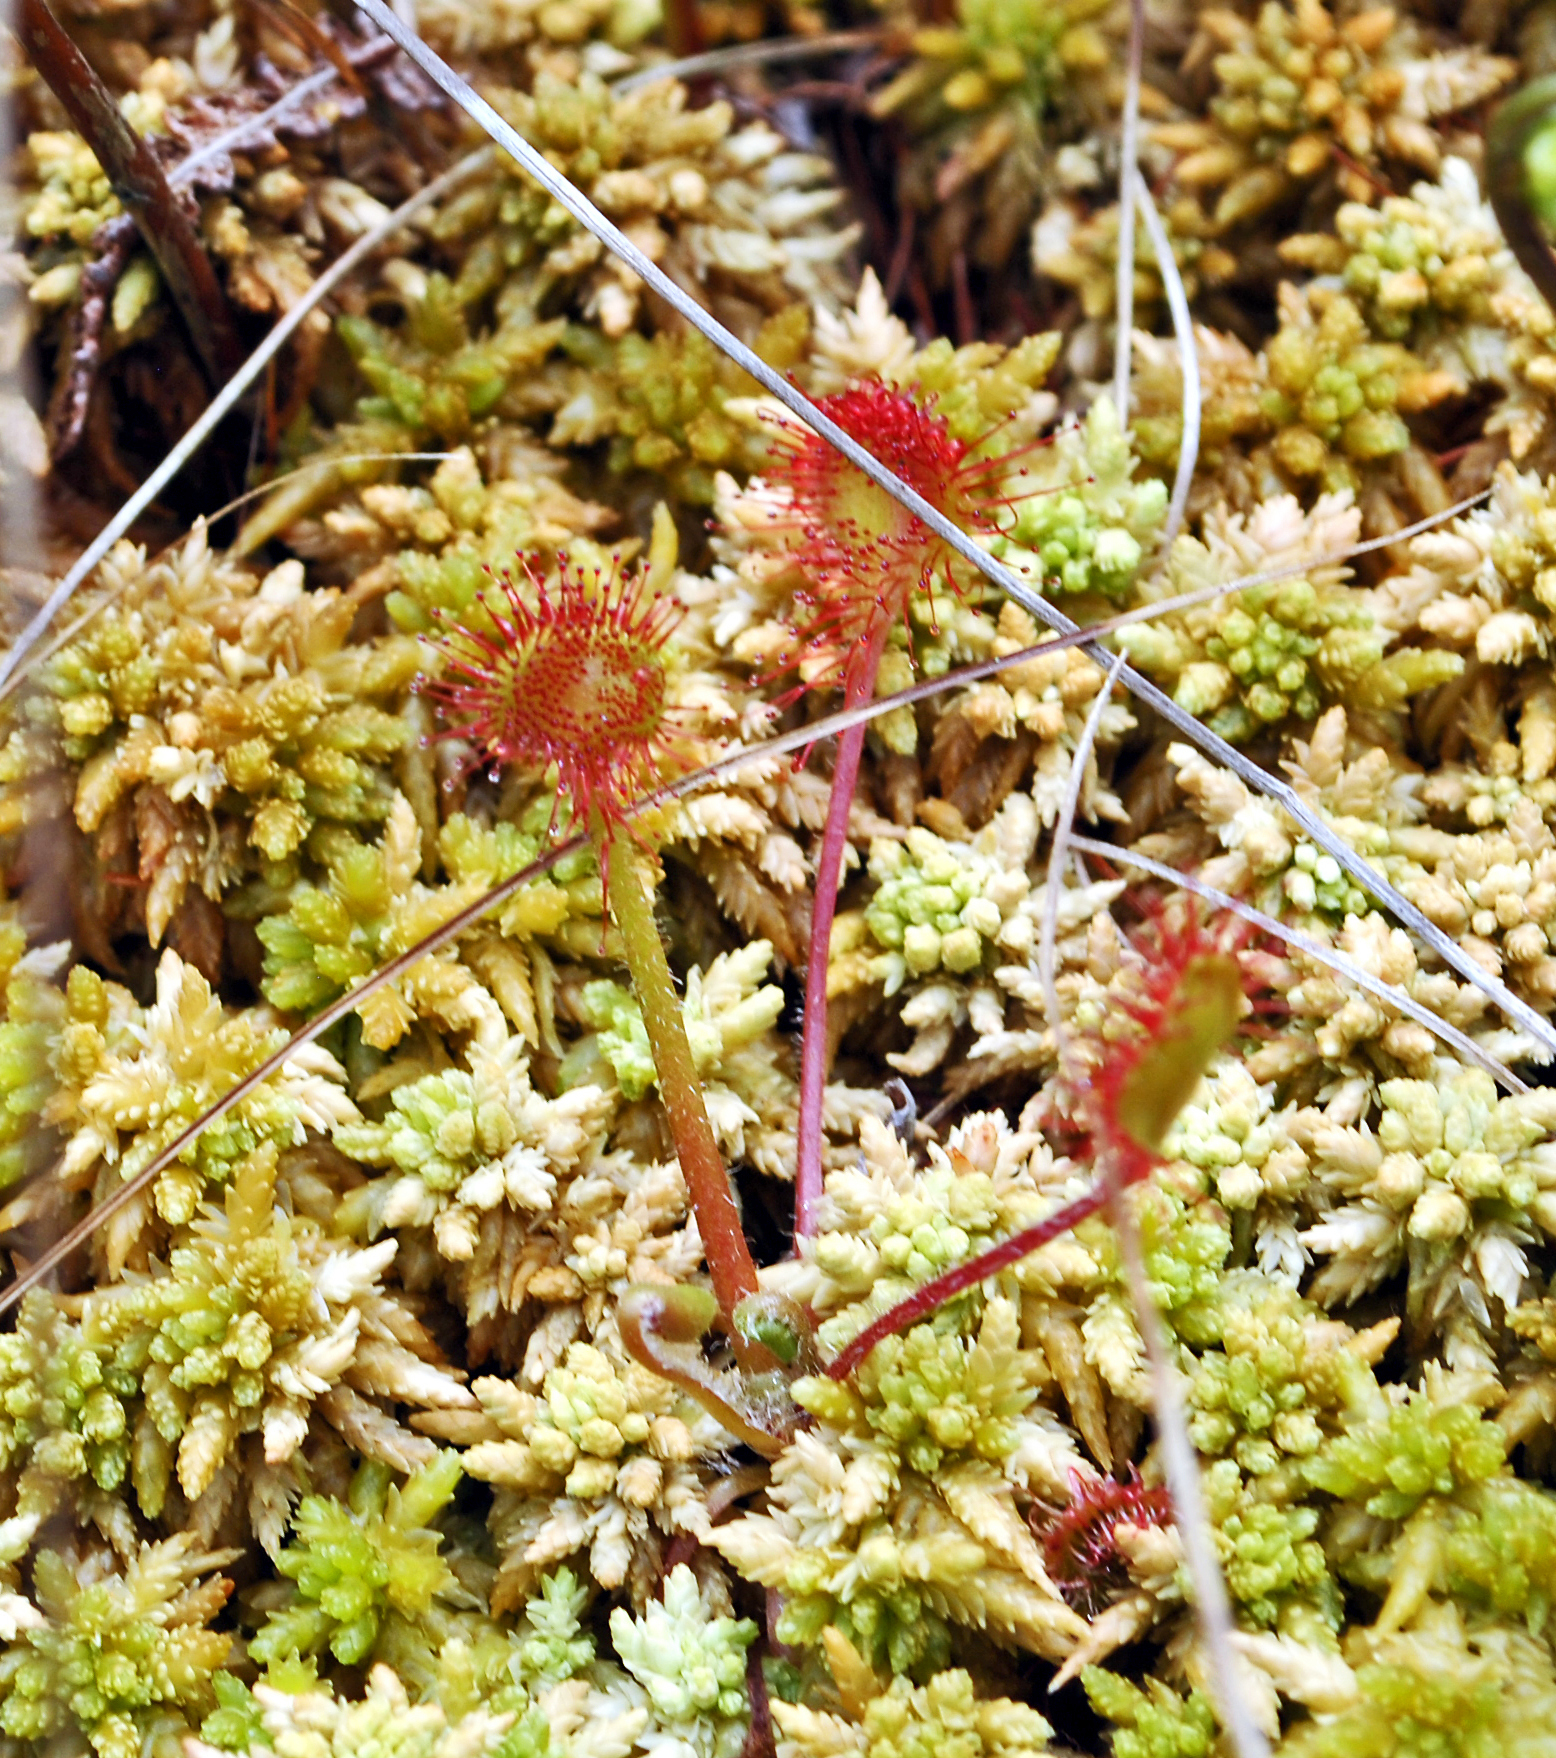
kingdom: Plantae
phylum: Tracheophyta
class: Magnoliopsida
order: Caryophyllales
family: Droseraceae
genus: Drosera
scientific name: Drosera rotundifolia
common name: Round-leaved sundew
